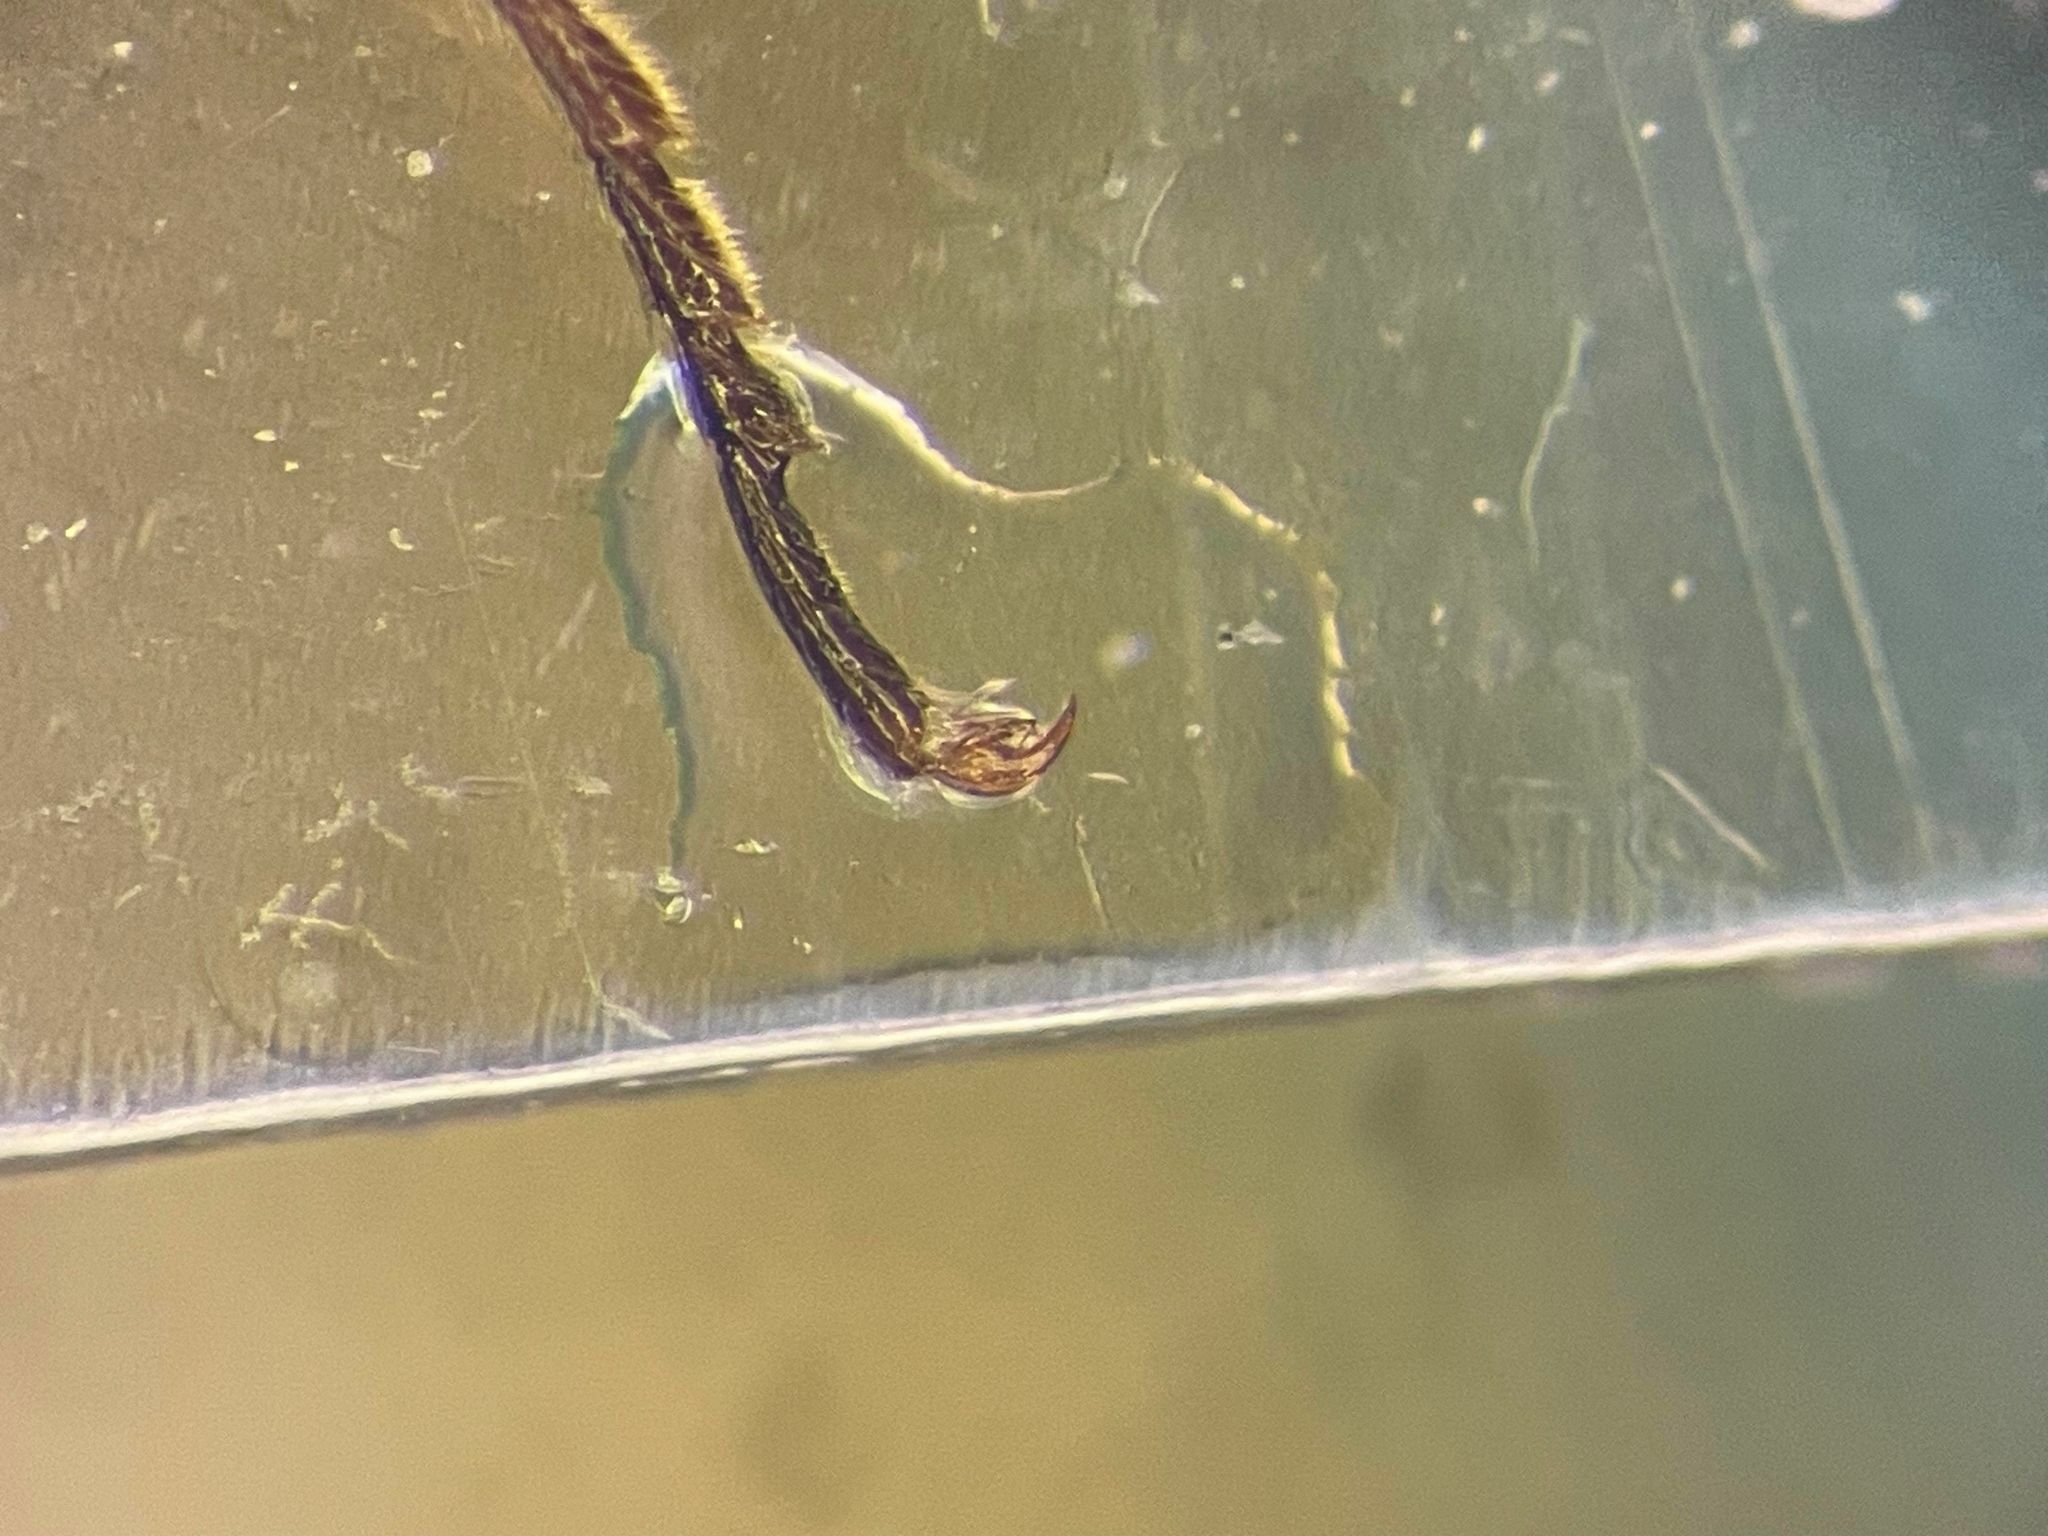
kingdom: Animalia
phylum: Arthropoda
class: Insecta
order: Coleoptera
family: Elateridae
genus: Oxygonus
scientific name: Oxygonus montanus
